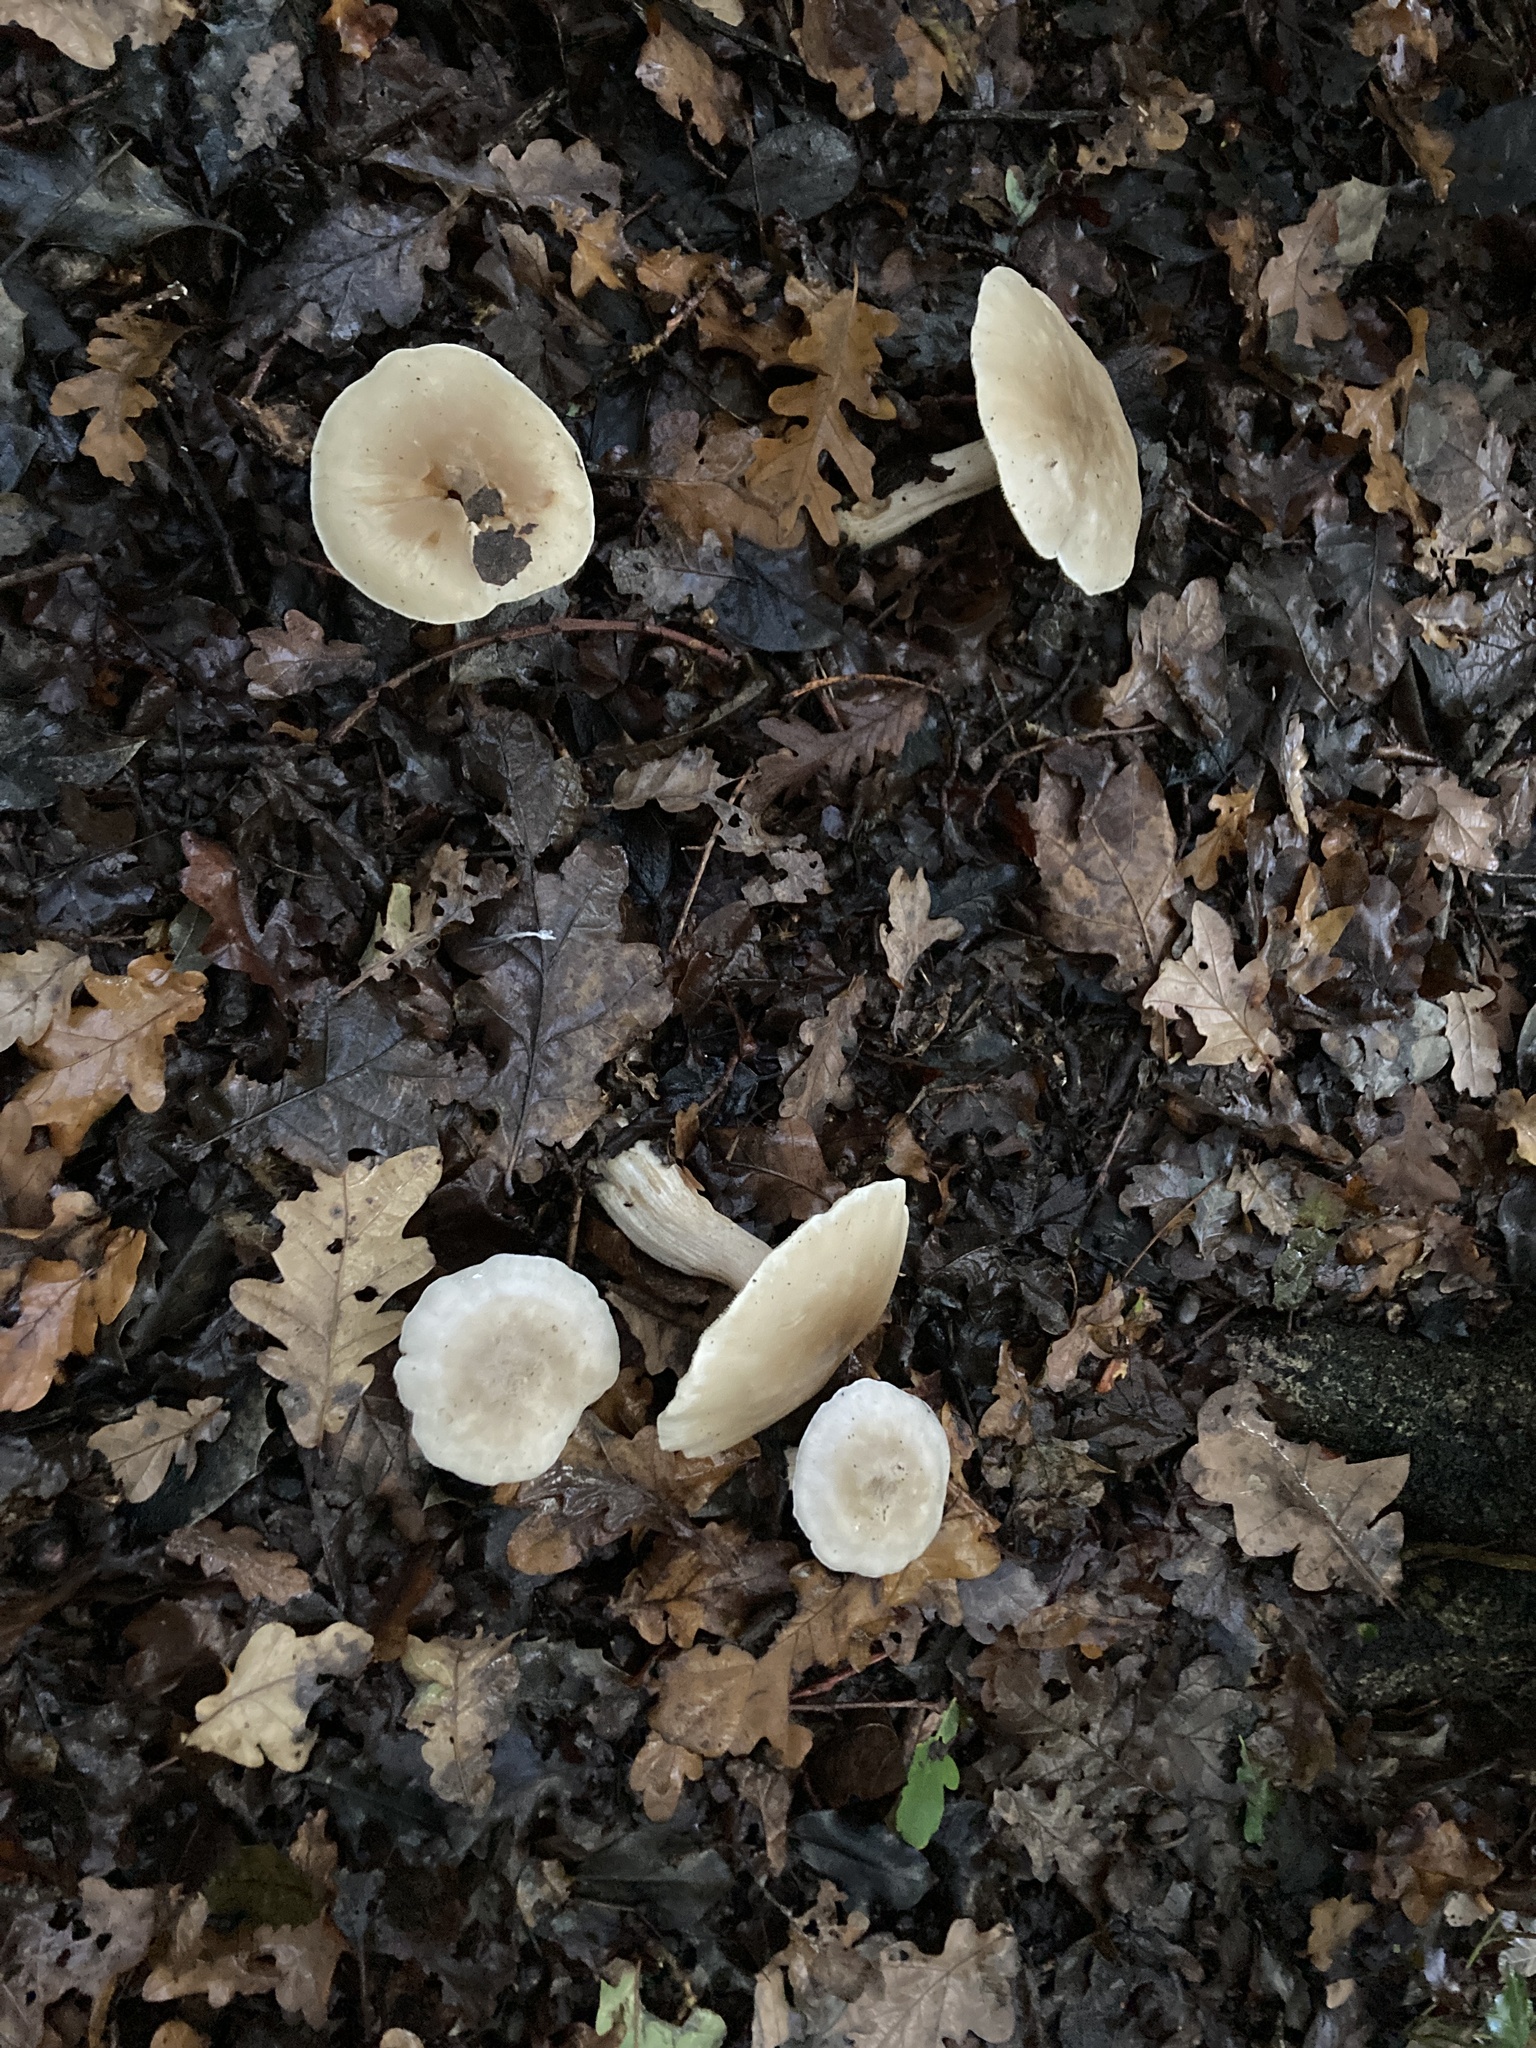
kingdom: Fungi
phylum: Basidiomycota
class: Agaricomycetes
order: Agaricales
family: Tricholomataceae
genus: Clitocybe
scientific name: Clitocybe nebularis
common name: Clouded agaric
